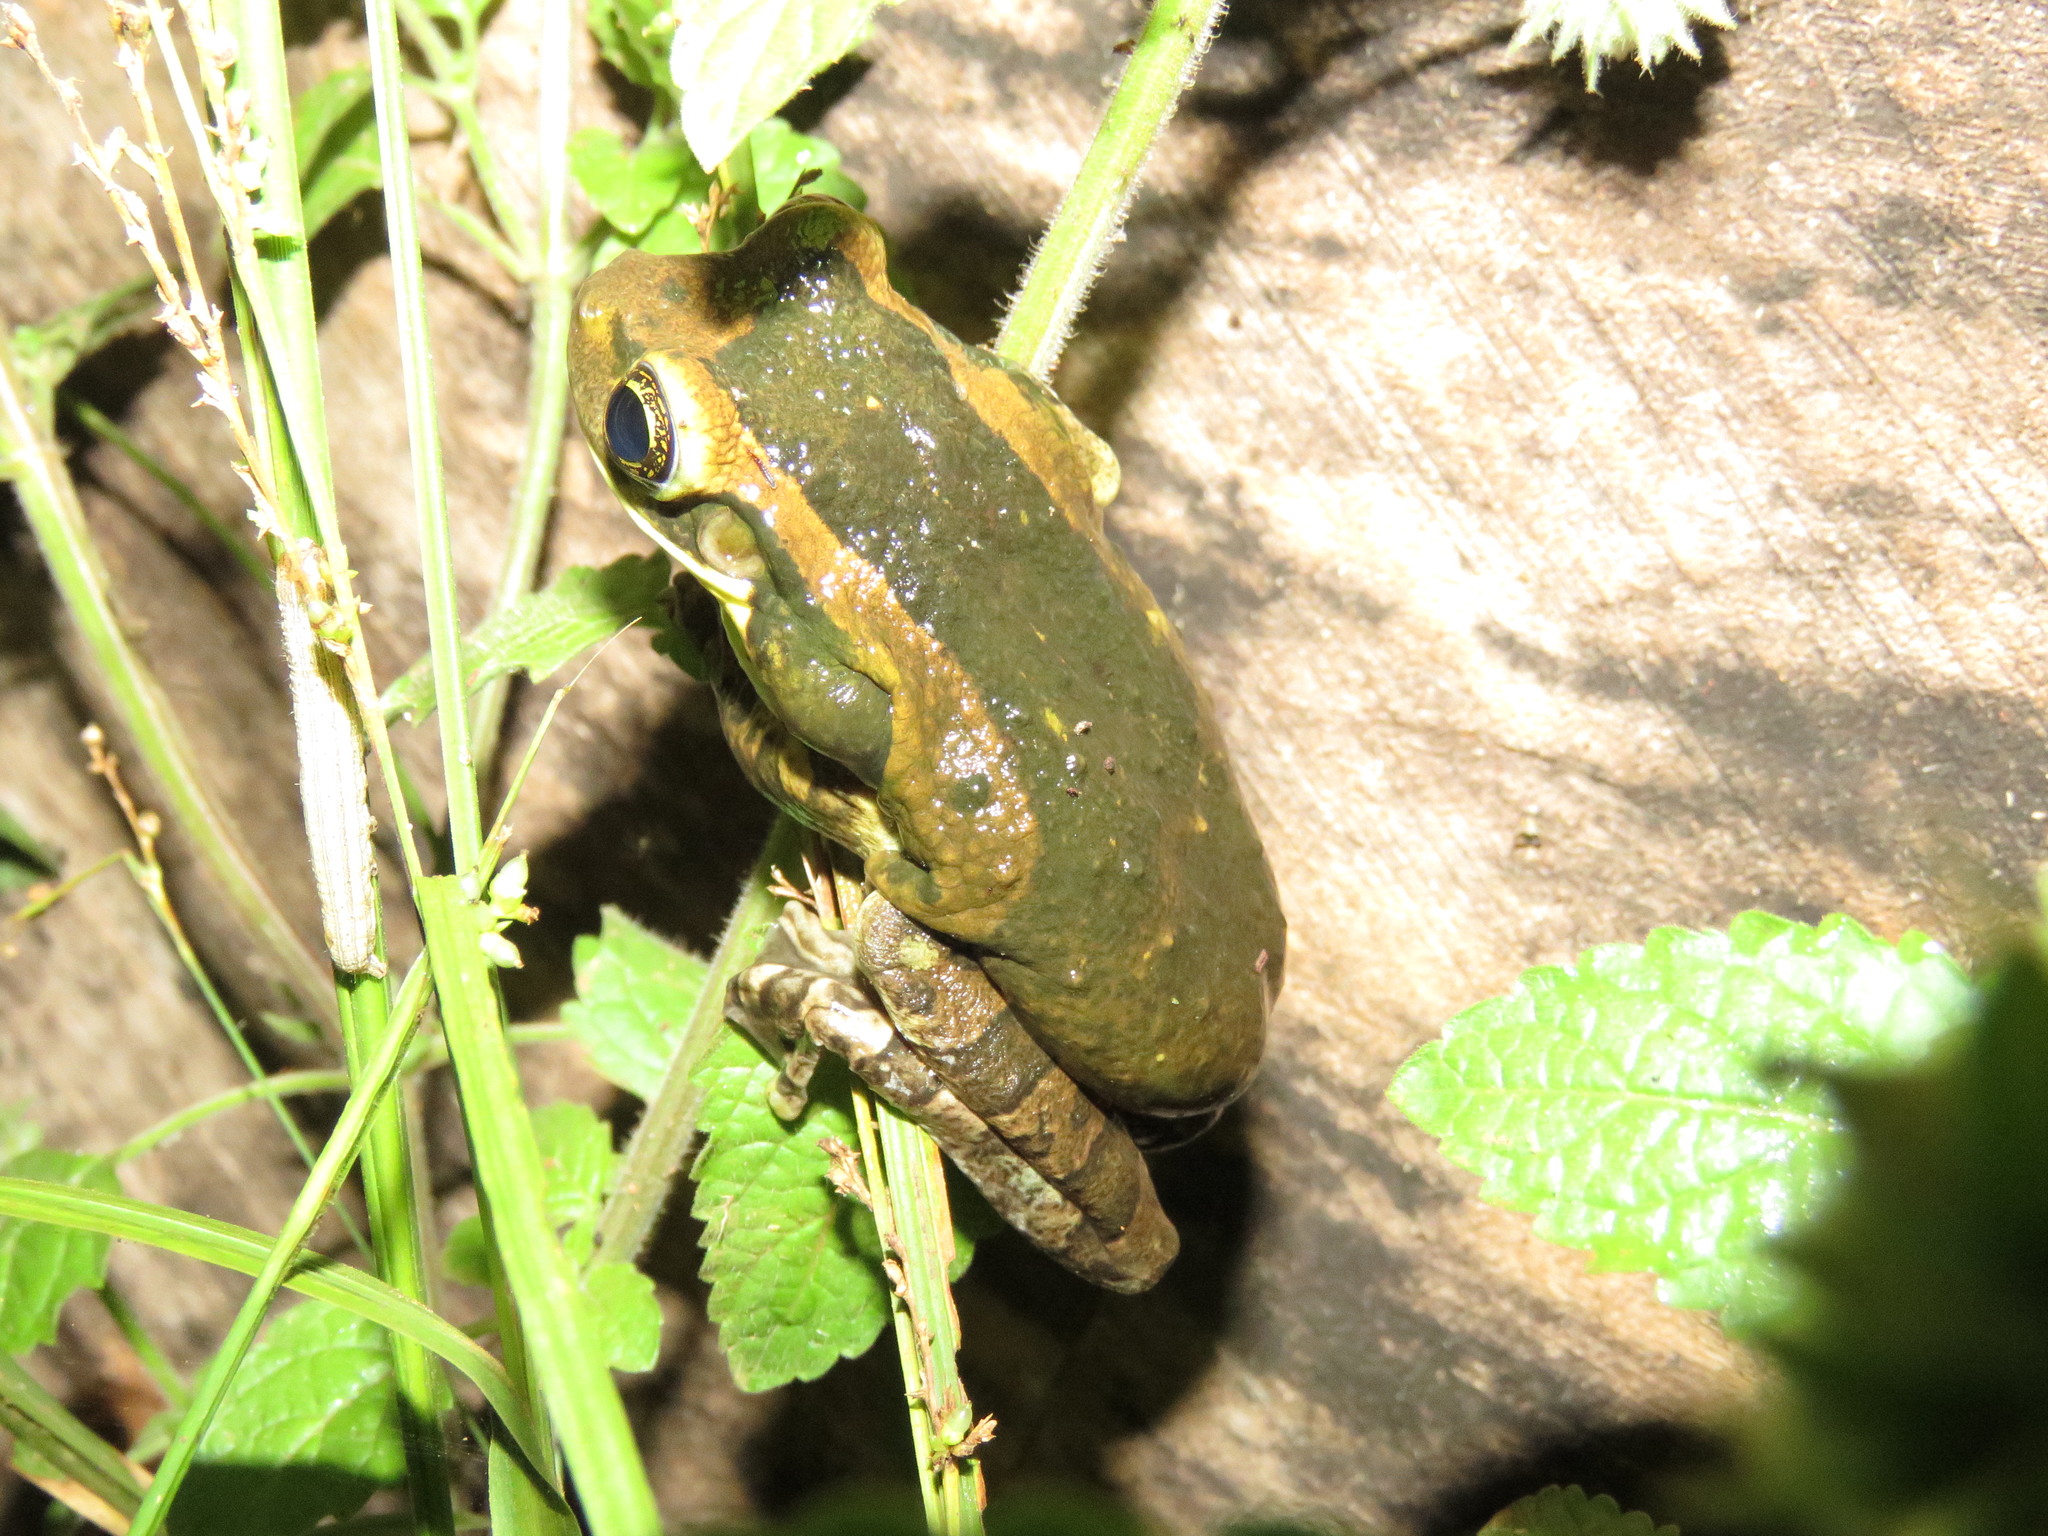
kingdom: Animalia
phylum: Chordata
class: Amphibia
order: Anura
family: Hylidae
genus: Trachycephalus
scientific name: Trachycephalus typhonius
